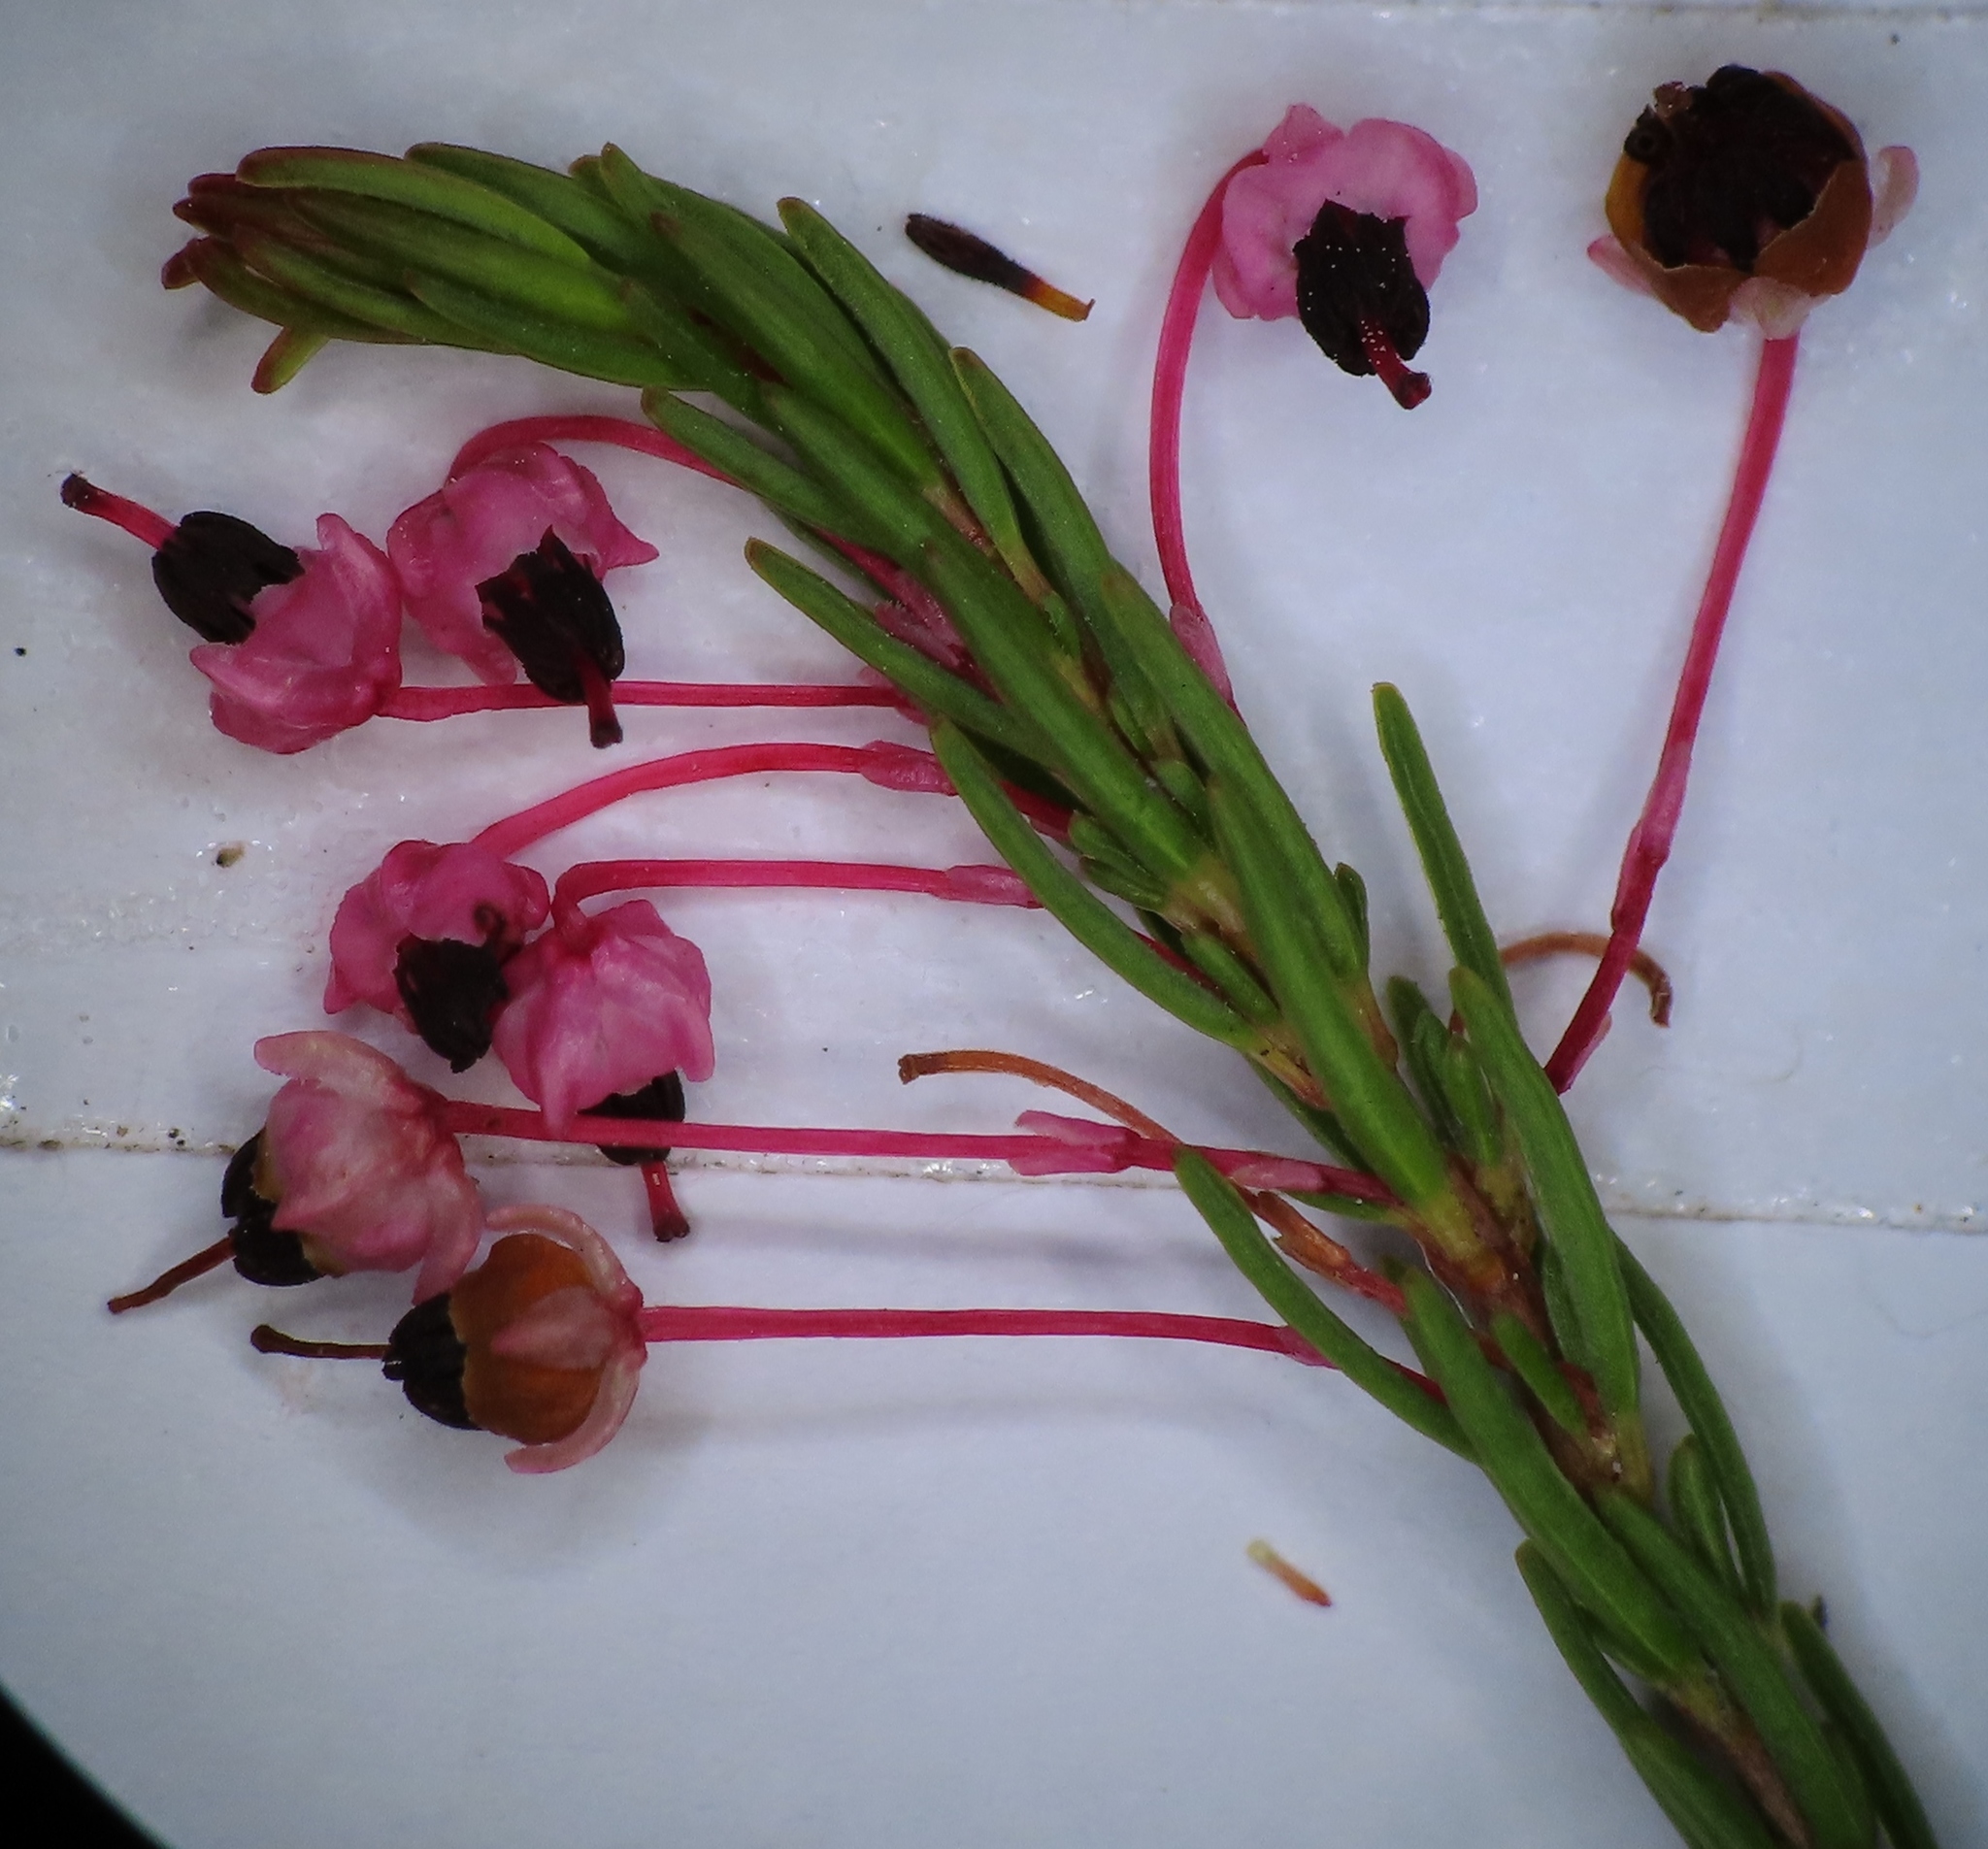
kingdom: Plantae
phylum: Tracheophyta
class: Magnoliopsida
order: Ericales
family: Ericaceae
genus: Erica
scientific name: Erica rubiginosa
